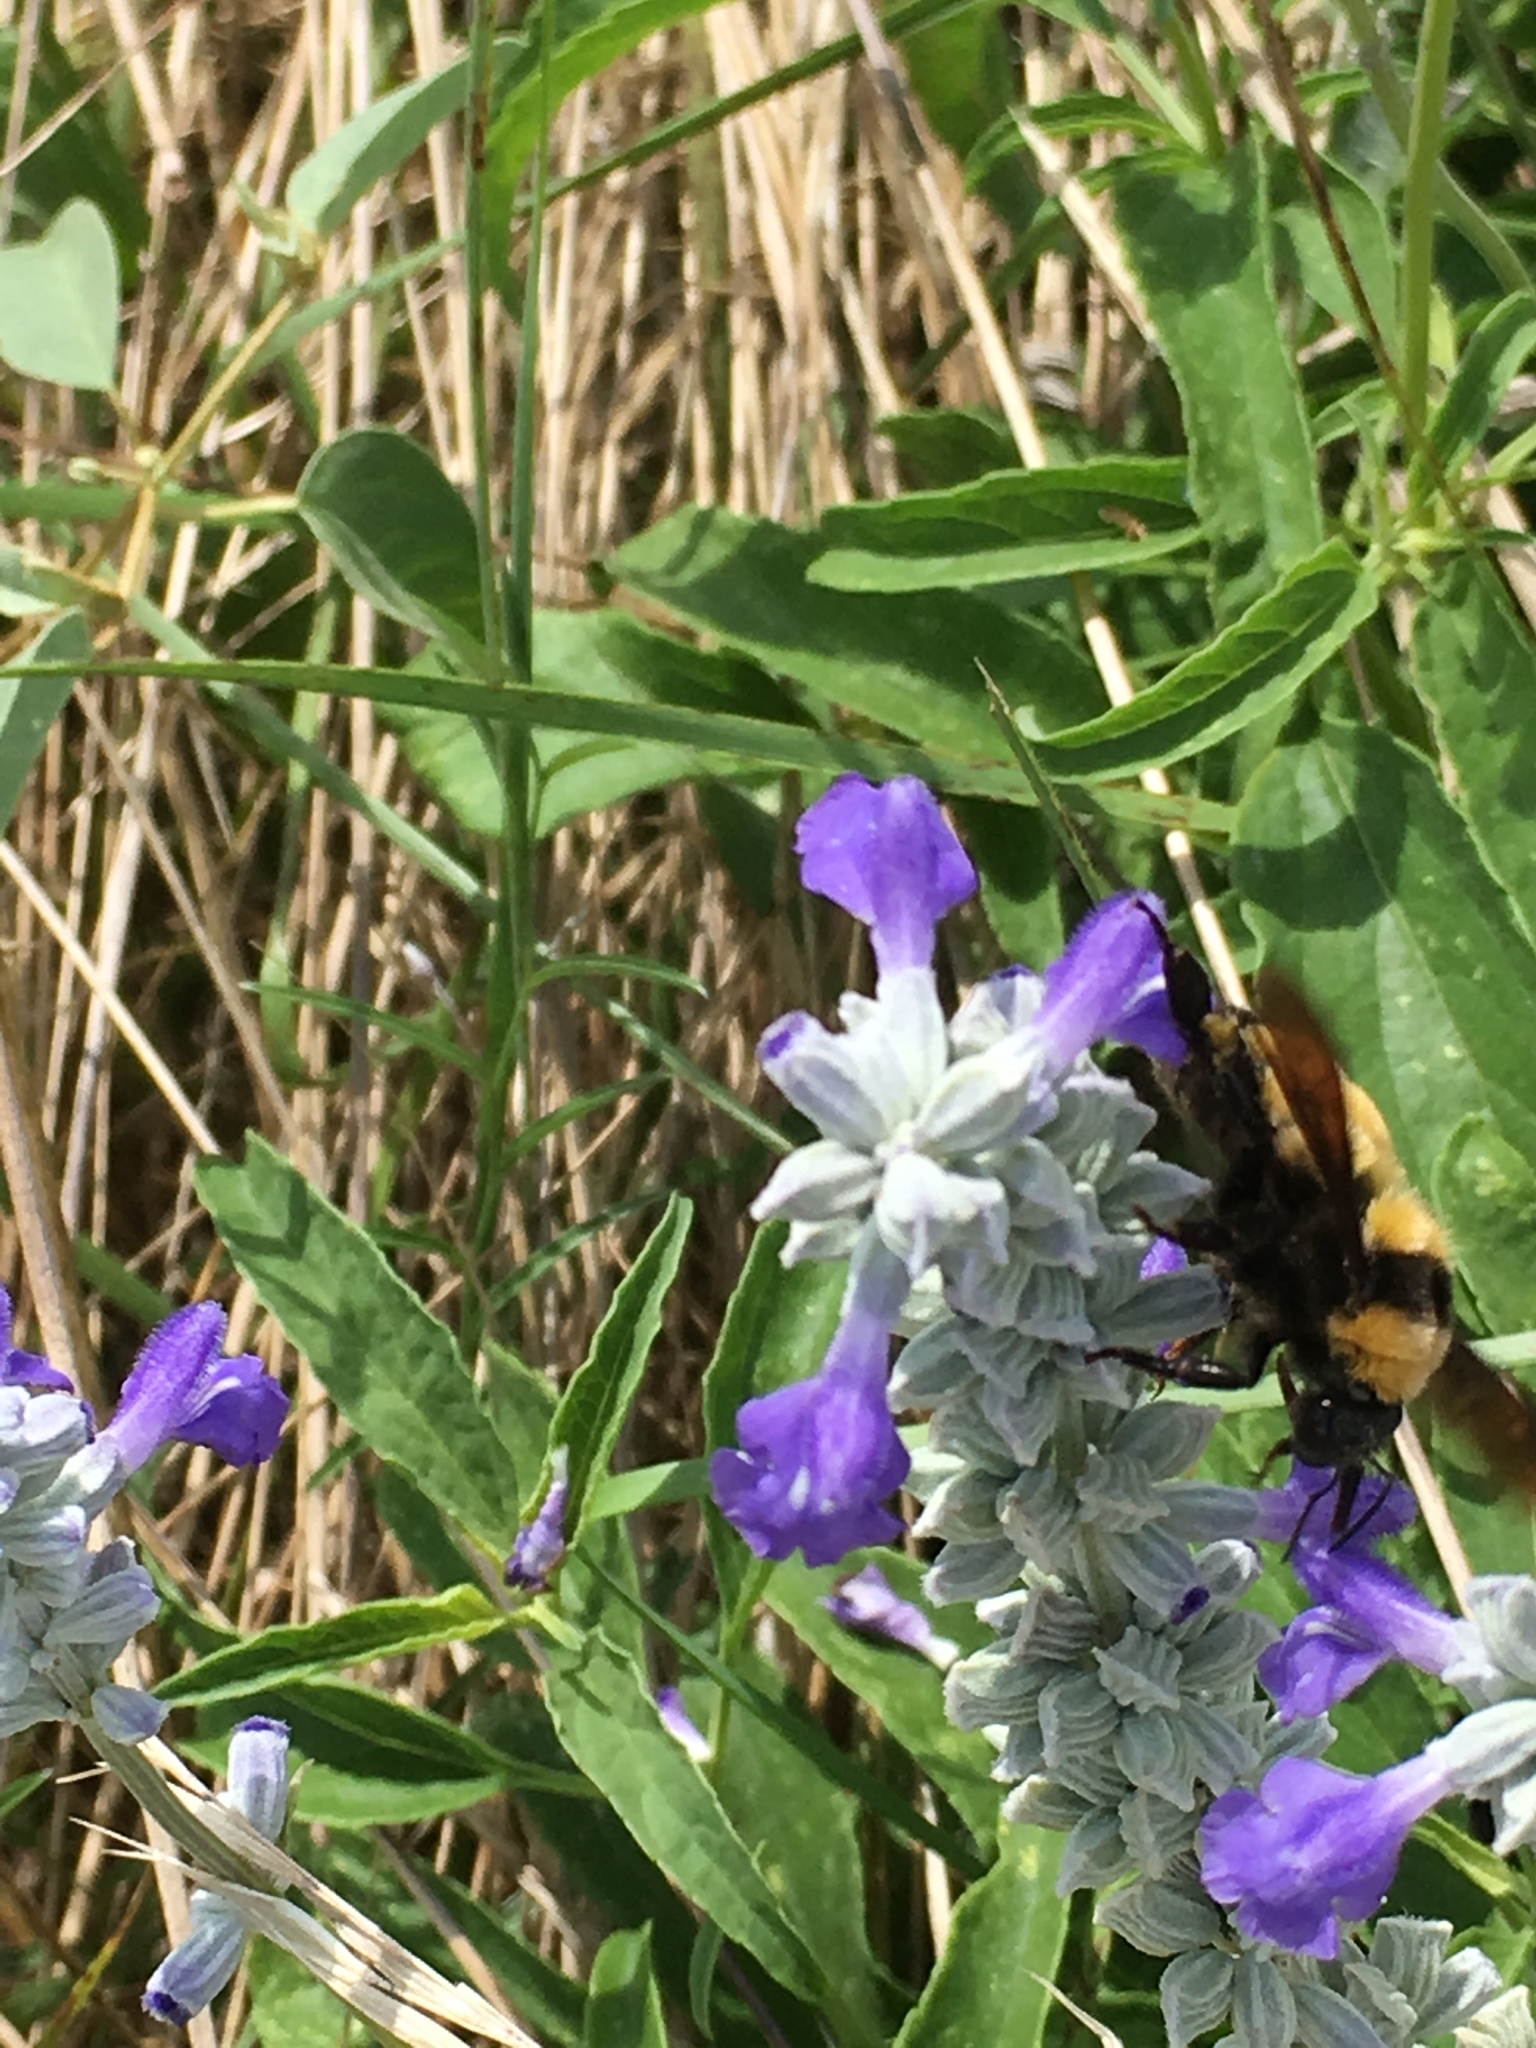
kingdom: Animalia
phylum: Arthropoda
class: Insecta
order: Hymenoptera
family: Apidae
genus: Bombus
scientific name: Bombus sonorus
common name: Sonoran bumble bee
